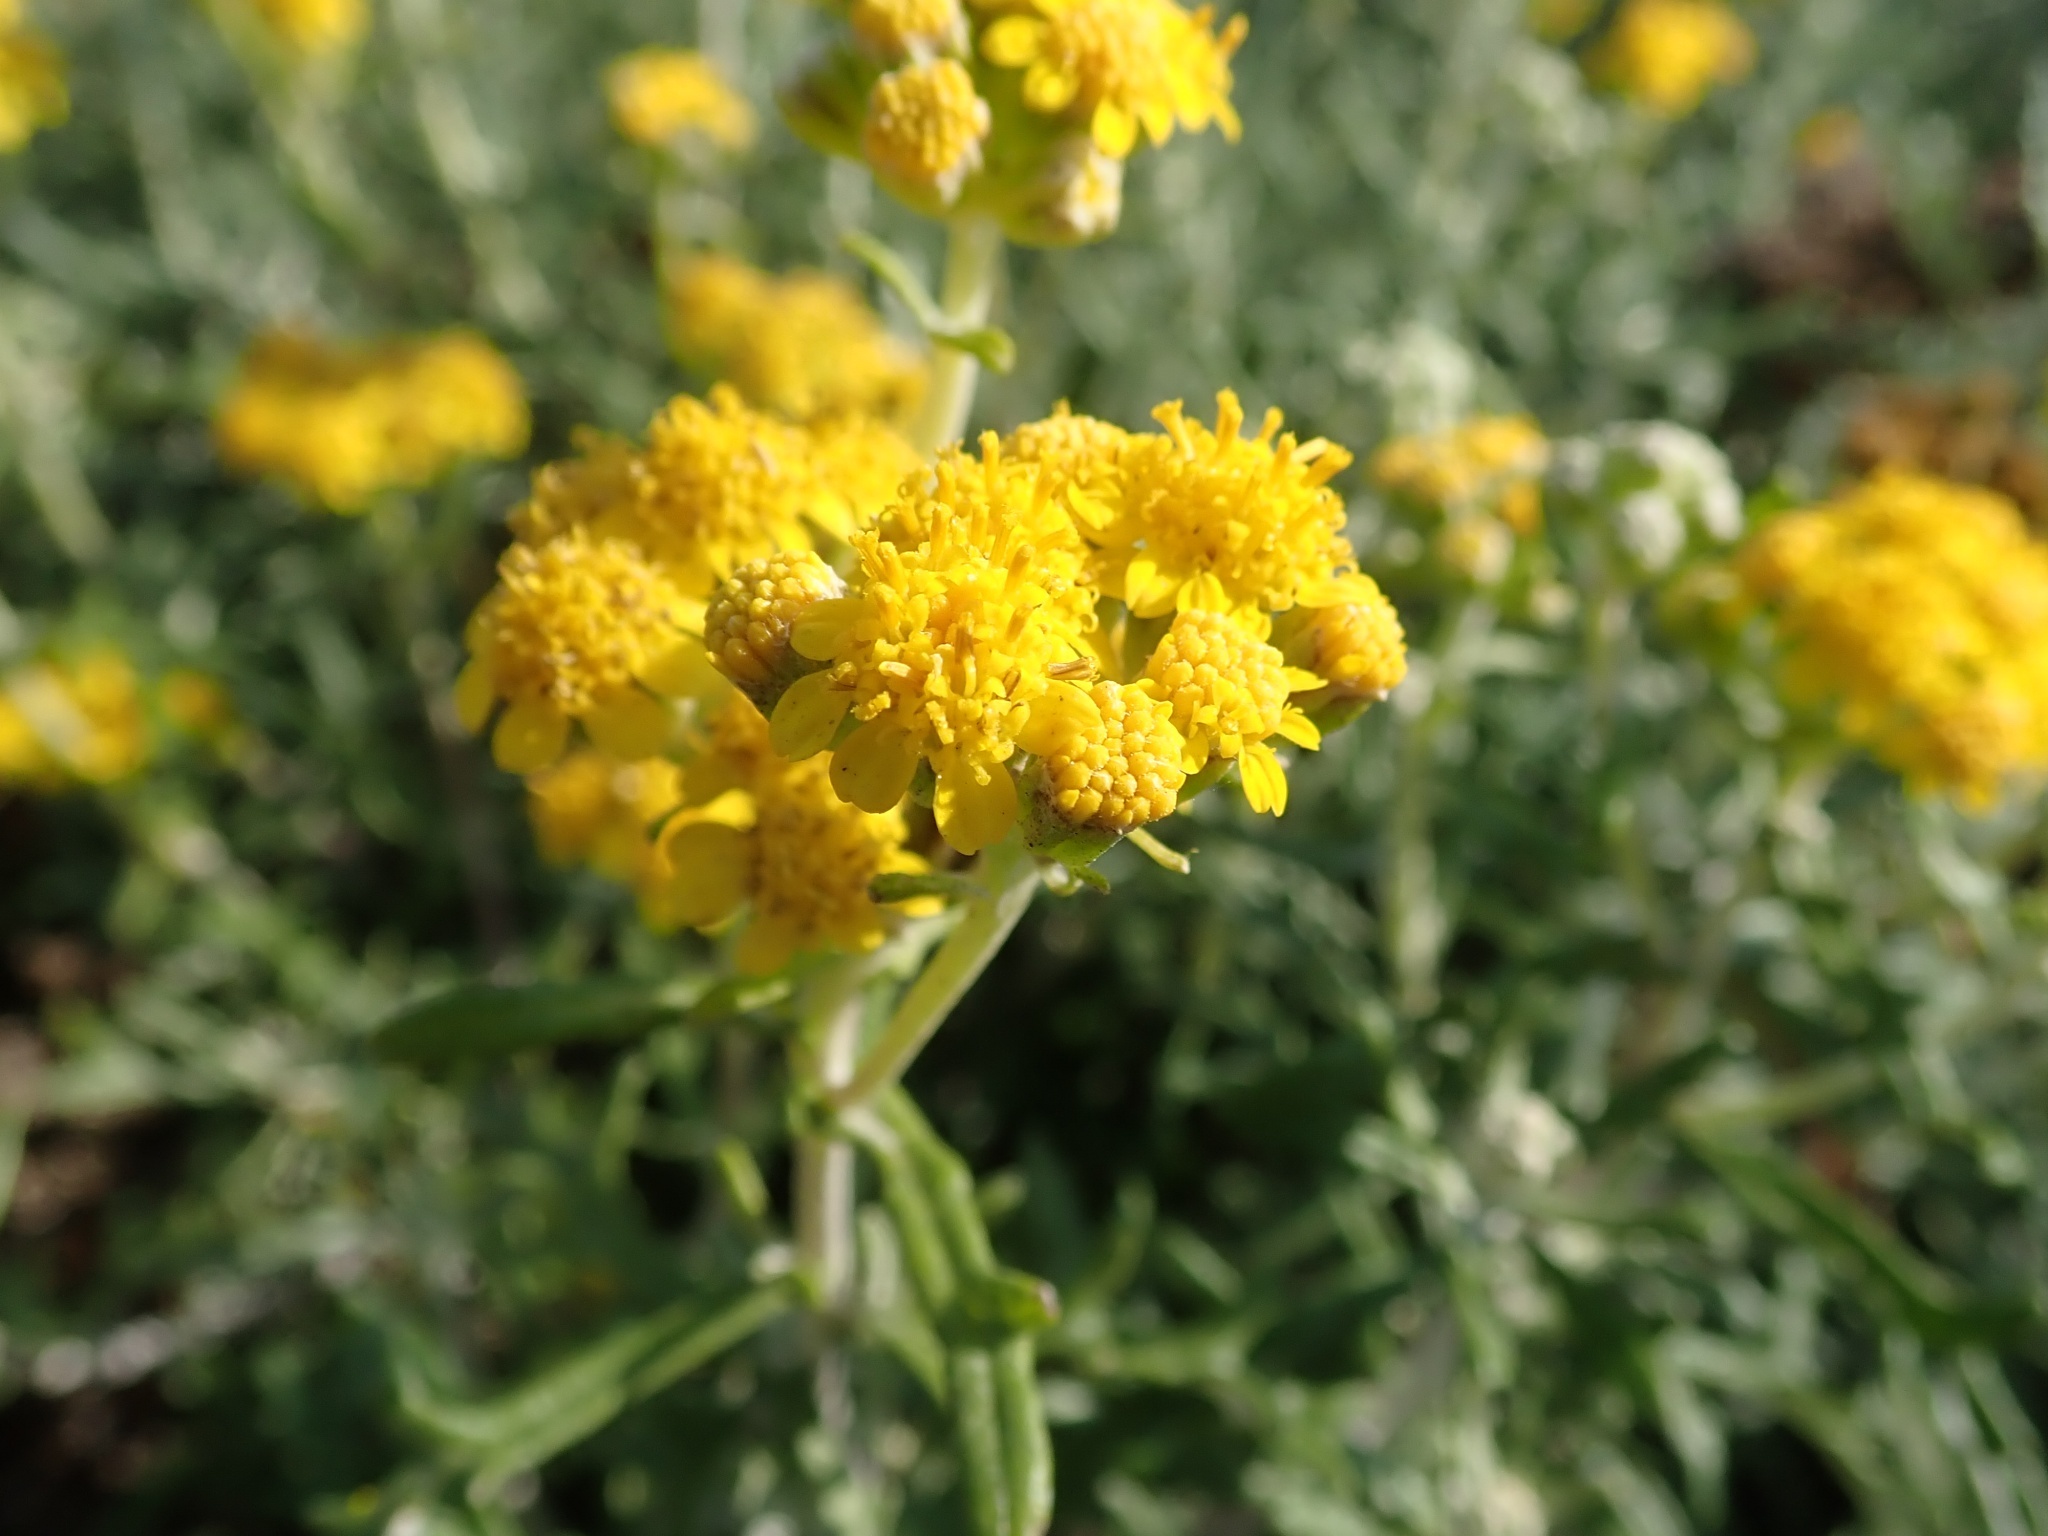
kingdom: Plantae
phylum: Tracheophyta
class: Magnoliopsida
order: Asterales
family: Asteraceae
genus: Eriophyllum
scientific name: Eriophyllum staechadifolium
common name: Lizardtail
